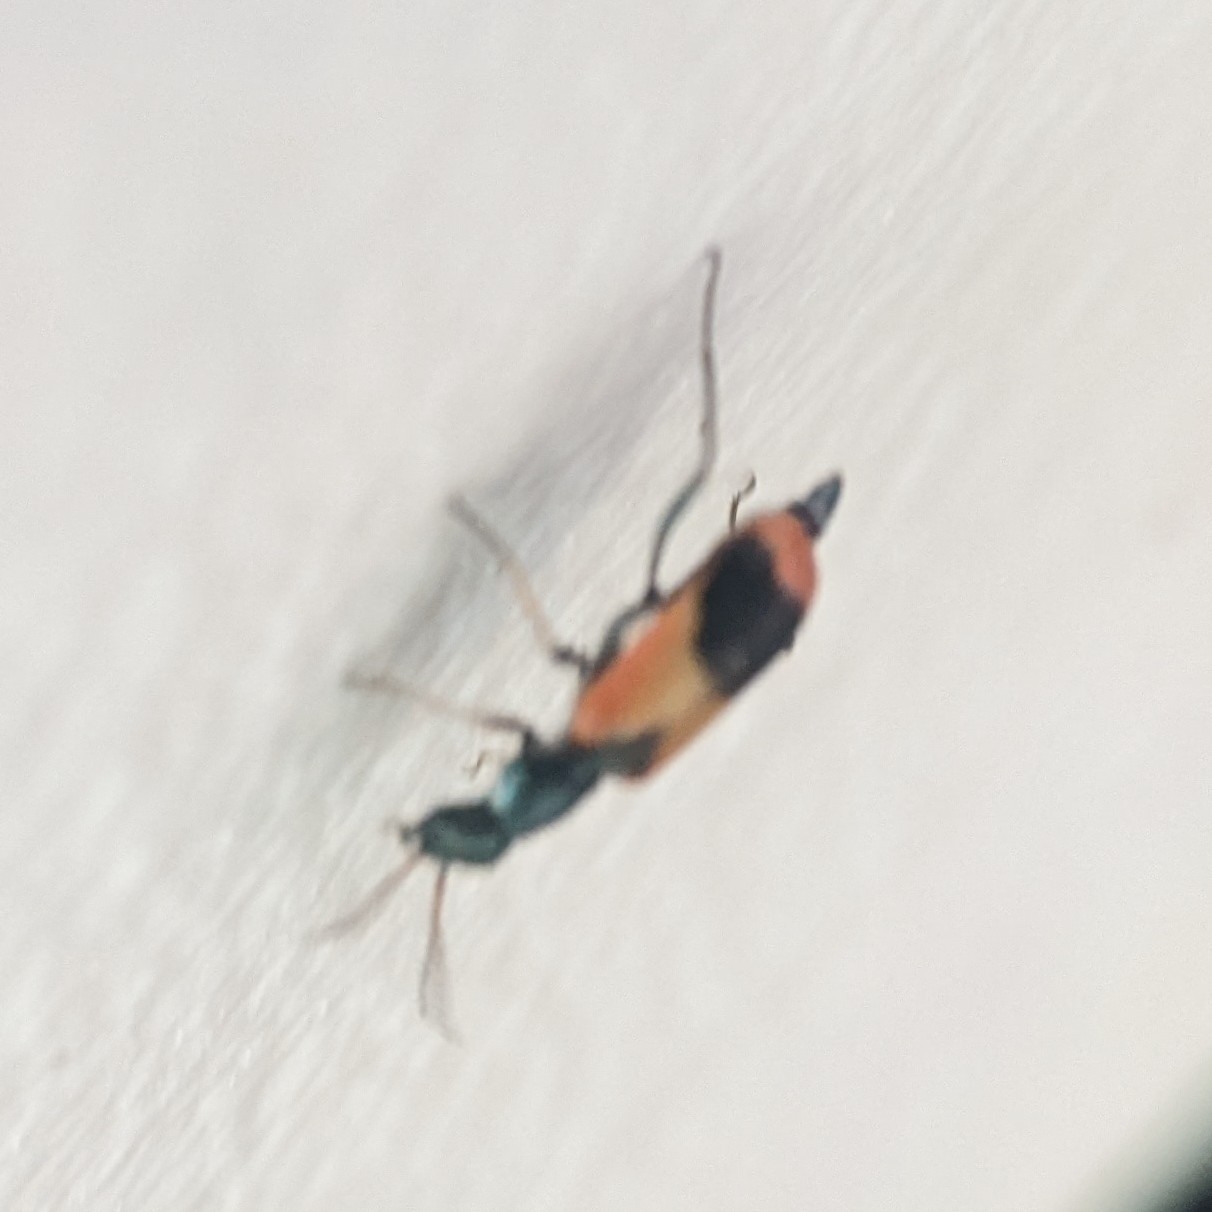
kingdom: Animalia
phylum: Arthropoda
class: Insecta
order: Coleoptera
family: Melyridae
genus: Anthocomus
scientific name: Anthocomus equestris
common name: Black-banded soft-winged flower beetle
